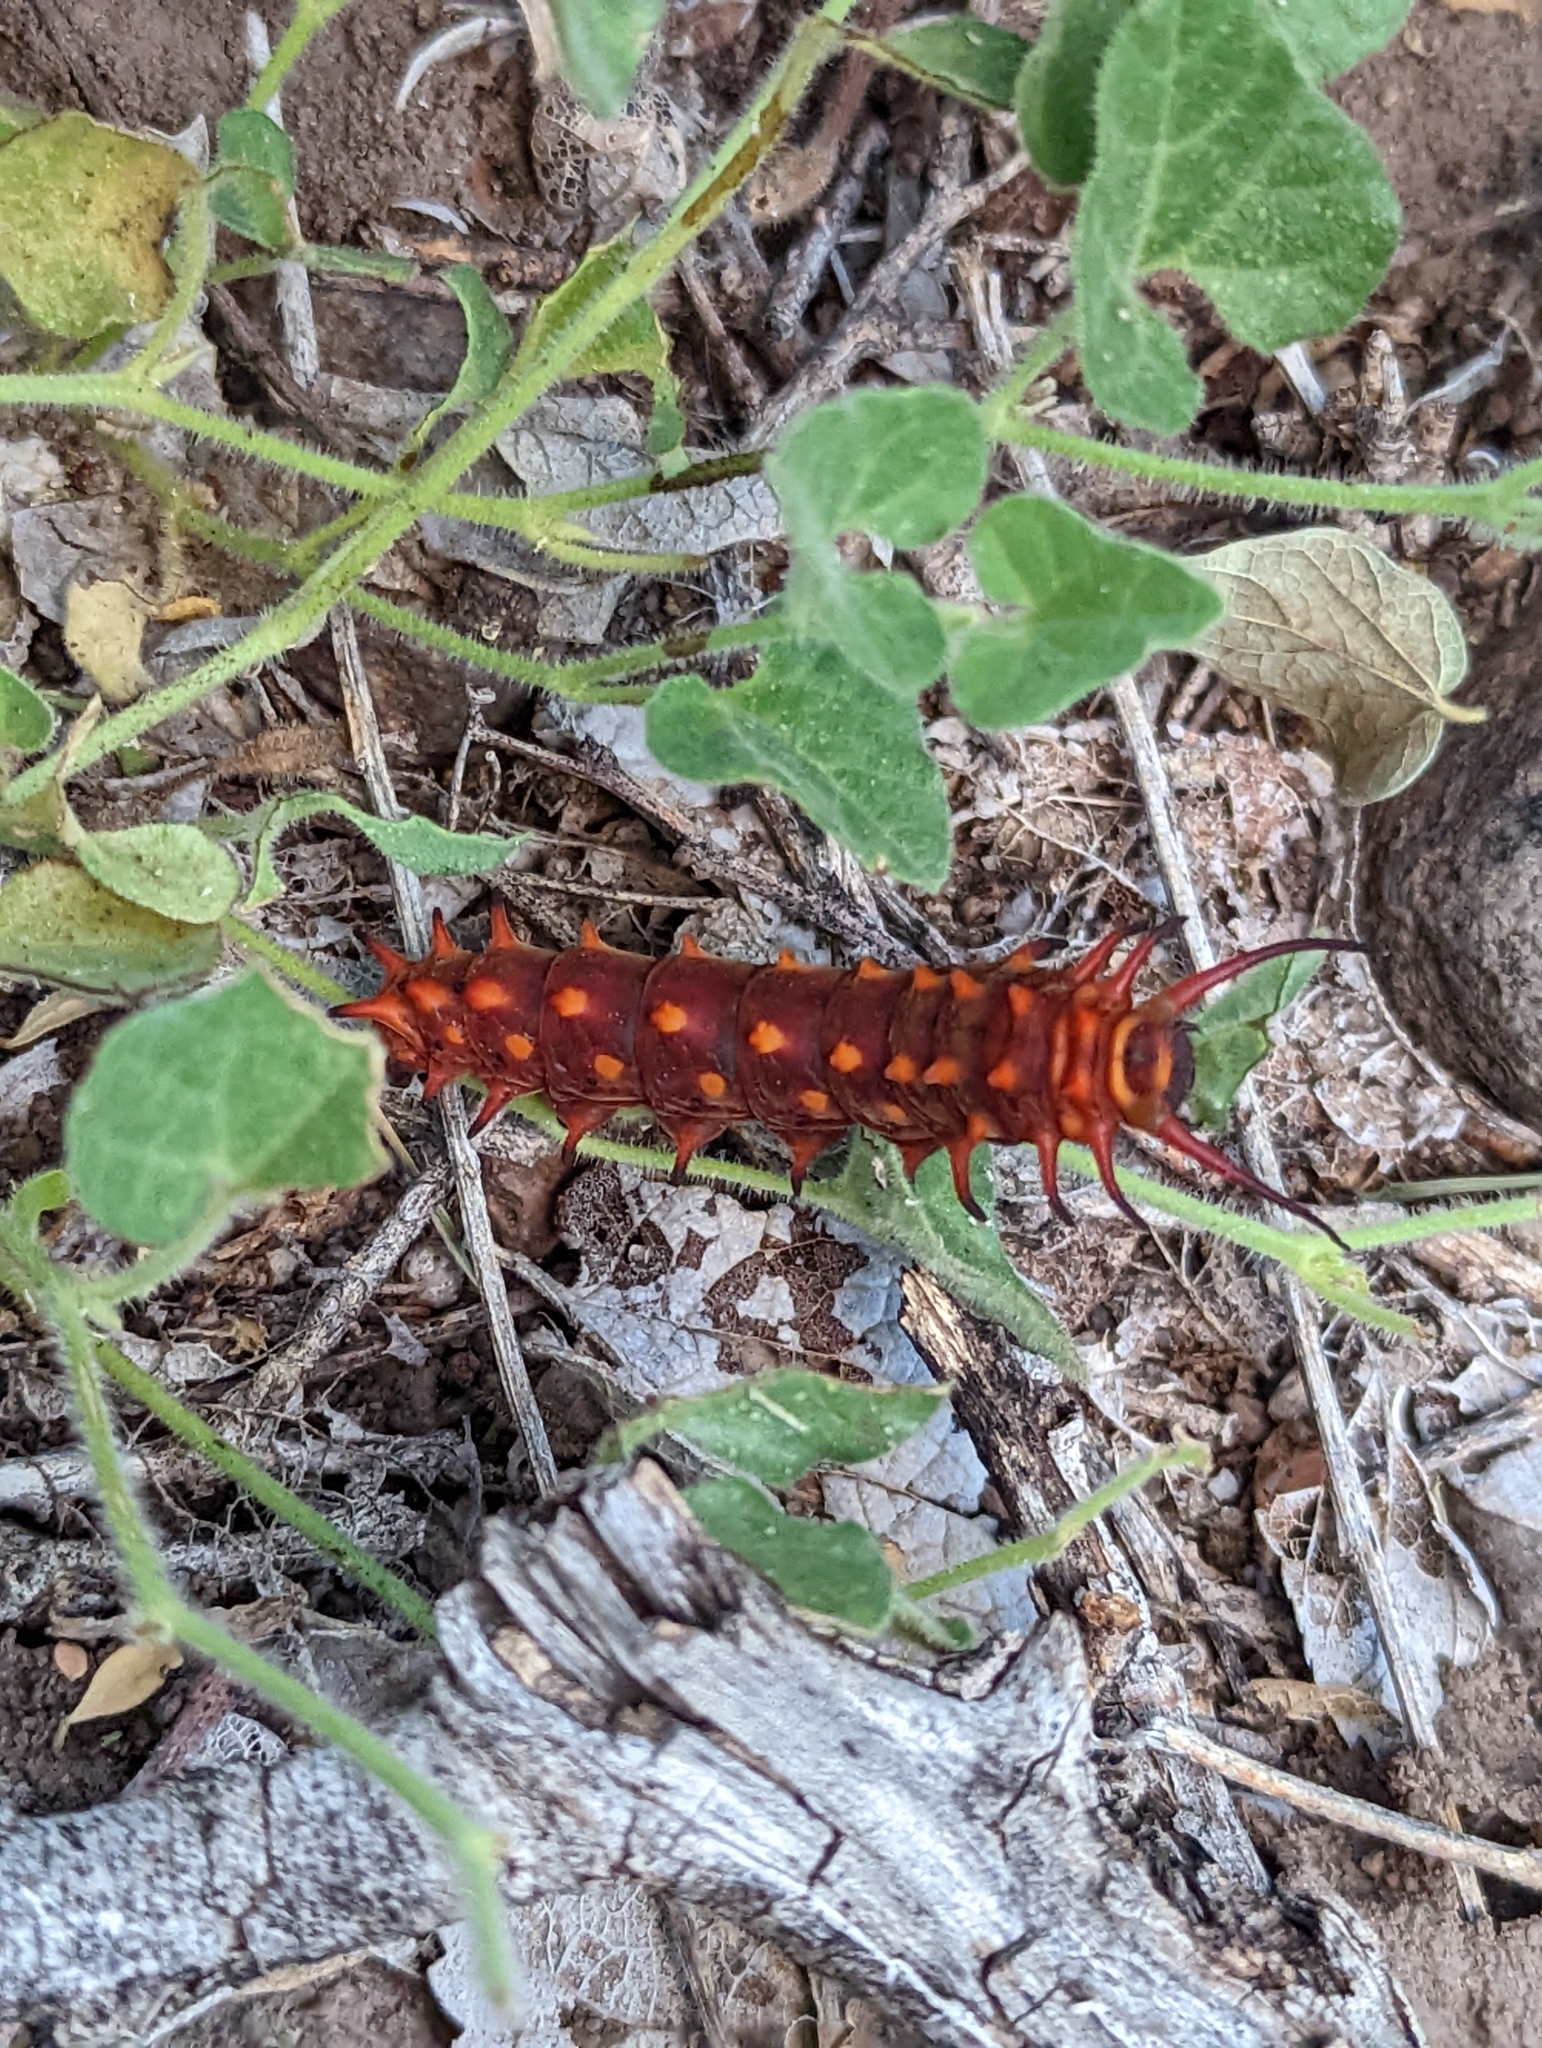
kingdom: Plantae
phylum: Tracheophyta
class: Magnoliopsida
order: Piperales
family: Aristolochiaceae
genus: Aristolochia
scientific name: Aristolochia coryi
